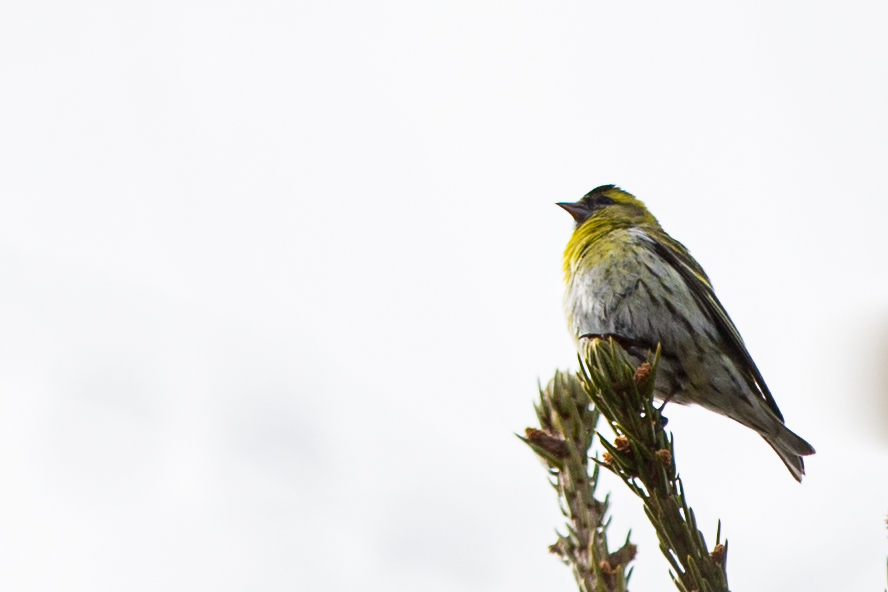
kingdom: Animalia
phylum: Chordata
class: Aves
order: Passeriformes
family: Fringillidae
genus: Spinus
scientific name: Spinus spinus
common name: Eurasian siskin
